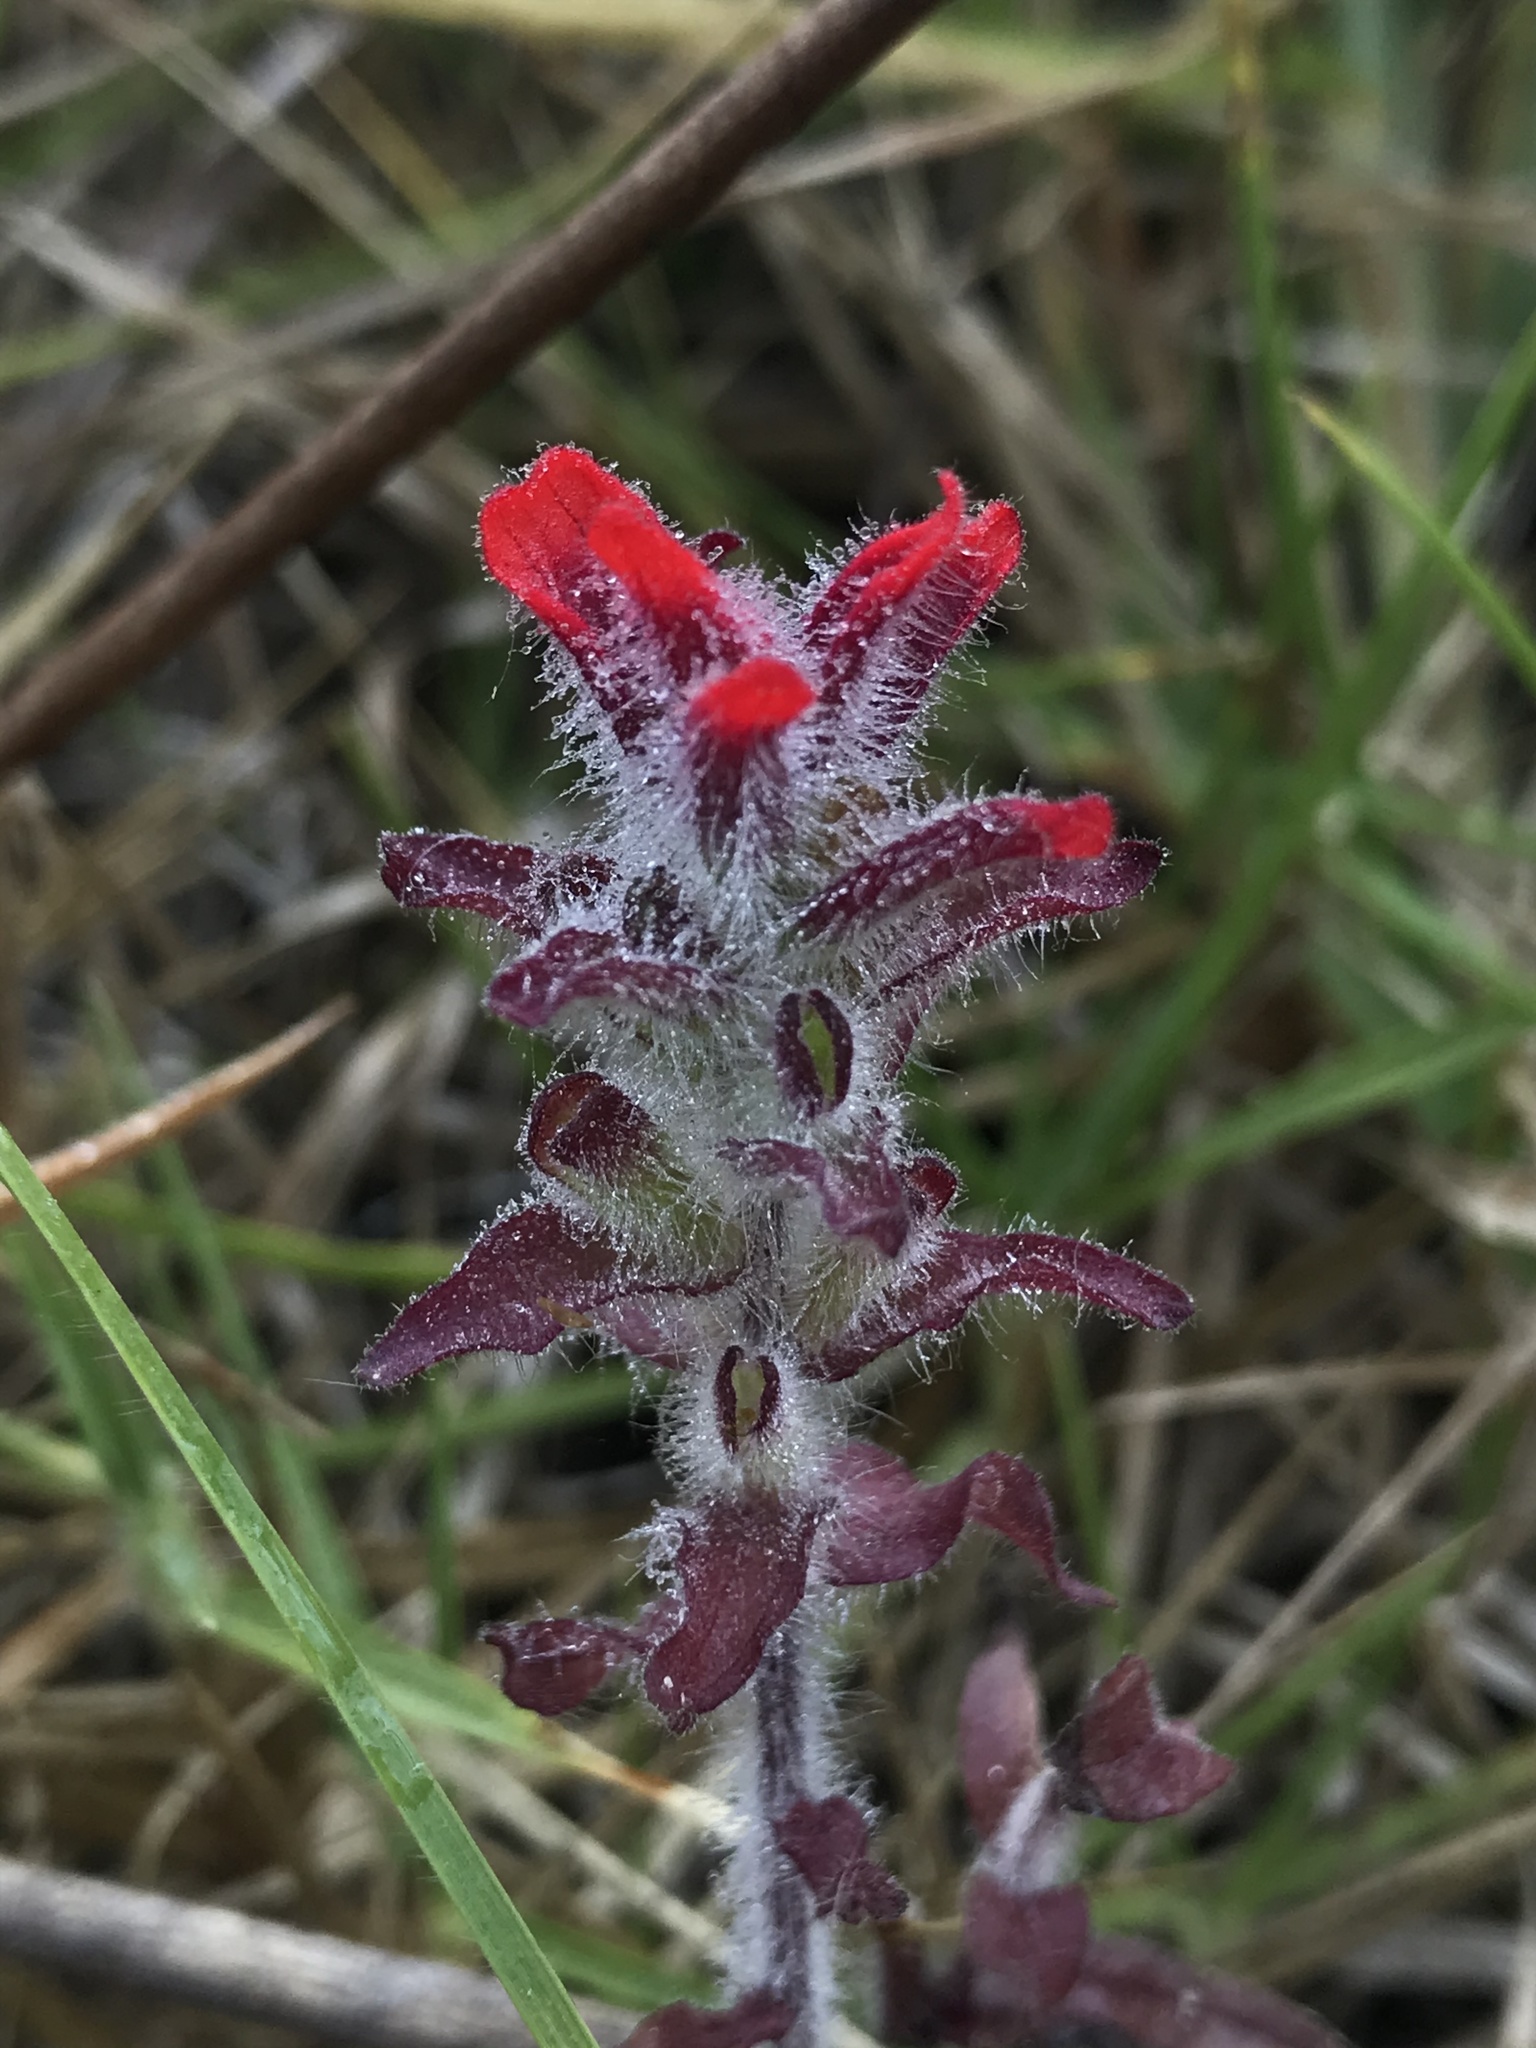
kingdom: Plantae
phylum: Tracheophyta
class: Magnoliopsida
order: Lamiales
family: Orobanchaceae
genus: Castilleja
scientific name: Castilleja arvensis
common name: Indian paintbrush
